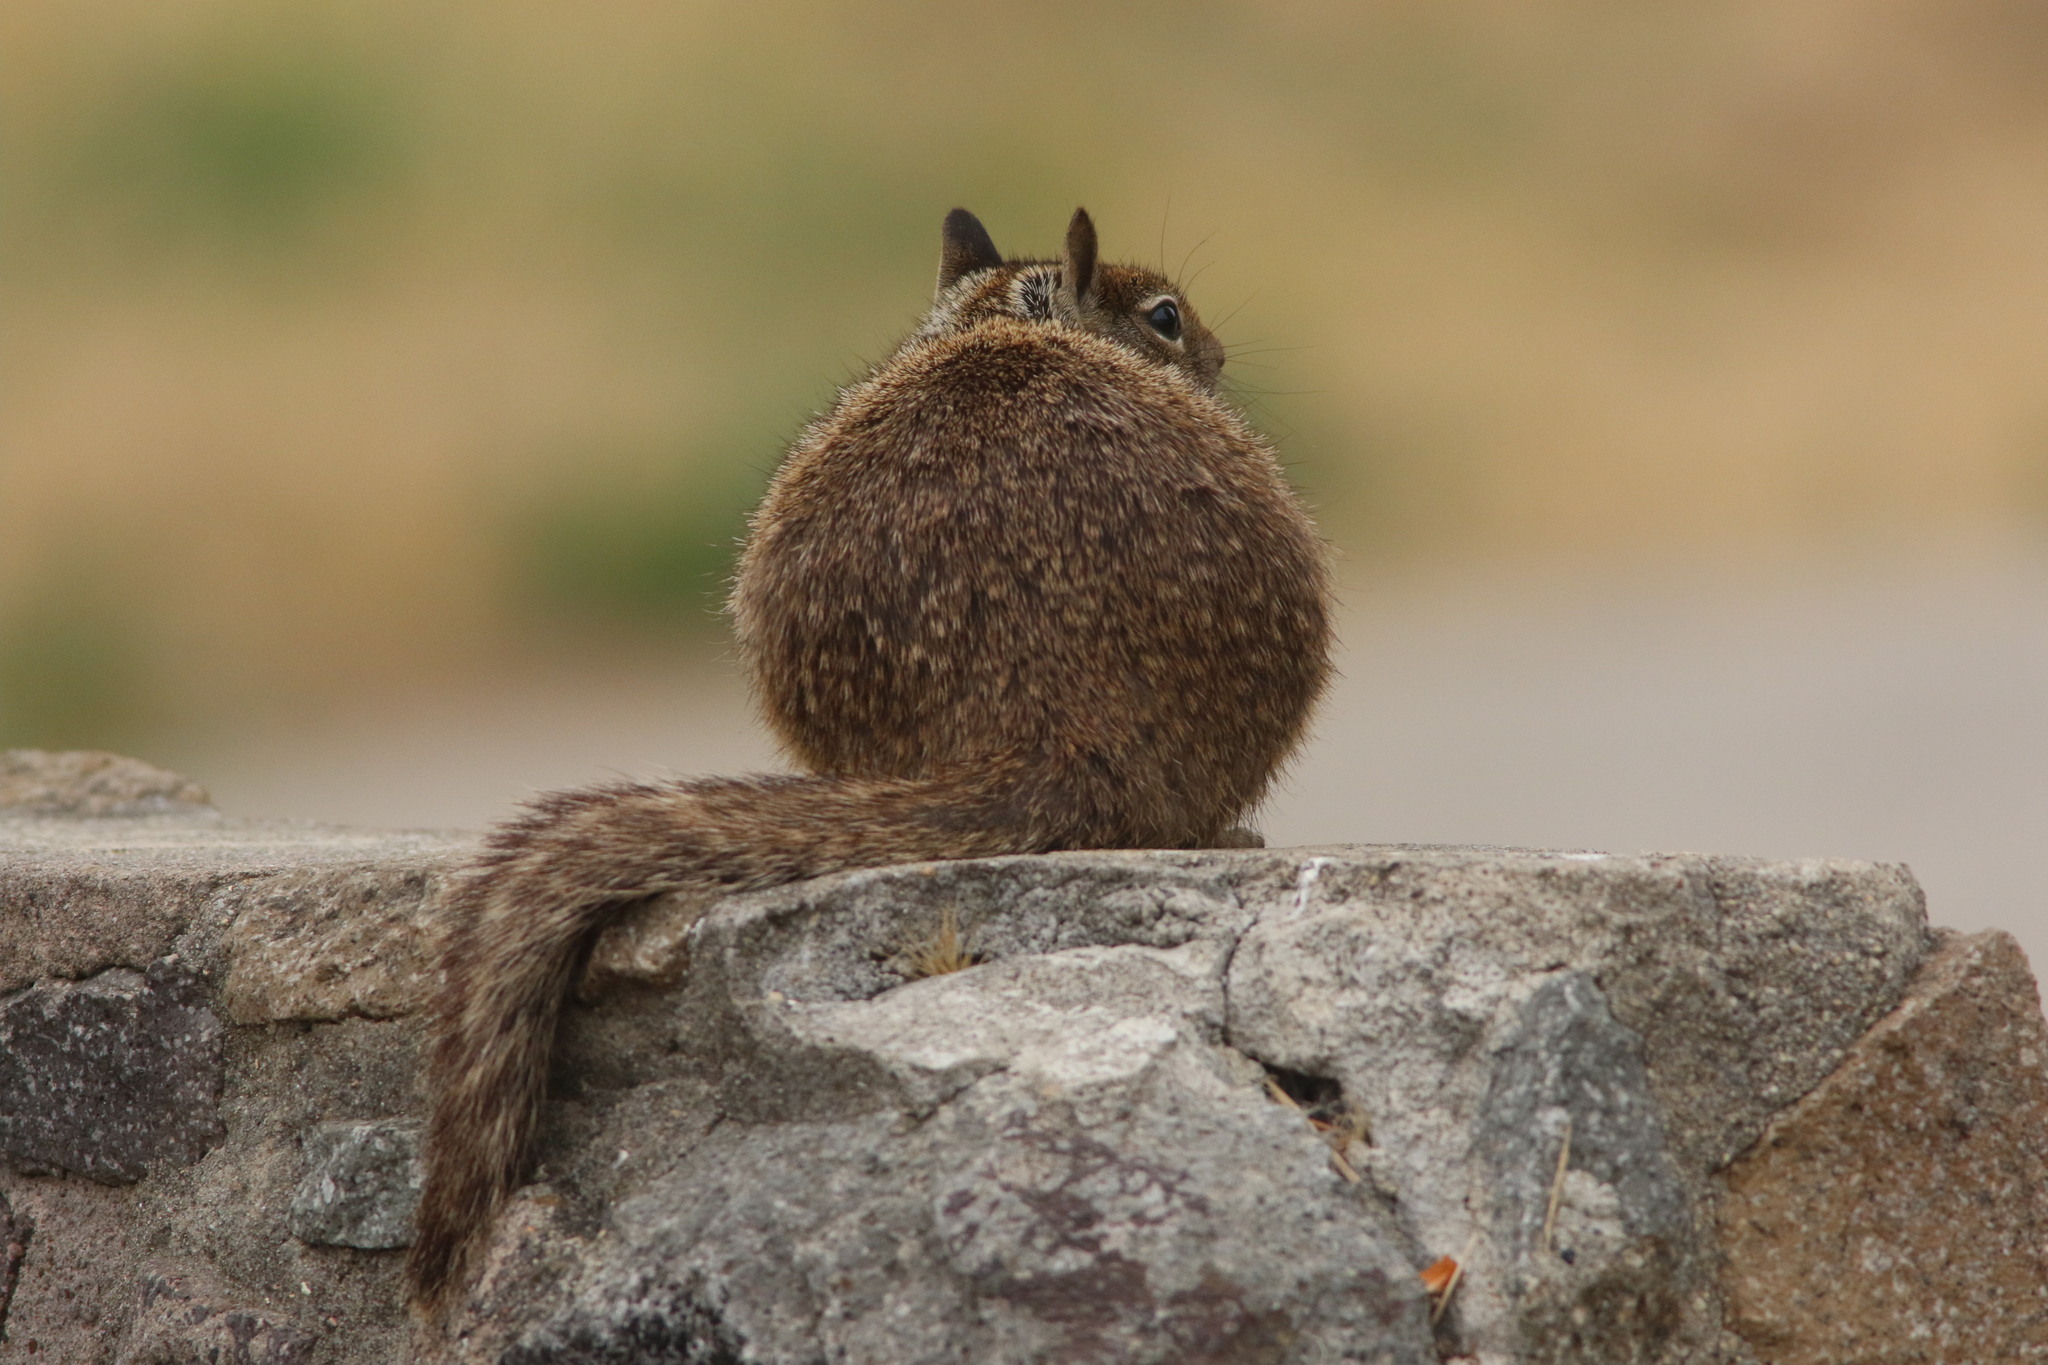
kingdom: Animalia
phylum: Chordata
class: Mammalia
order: Rodentia
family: Sciuridae
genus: Otospermophilus
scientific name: Otospermophilus beecheyi
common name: California ground squirrel
